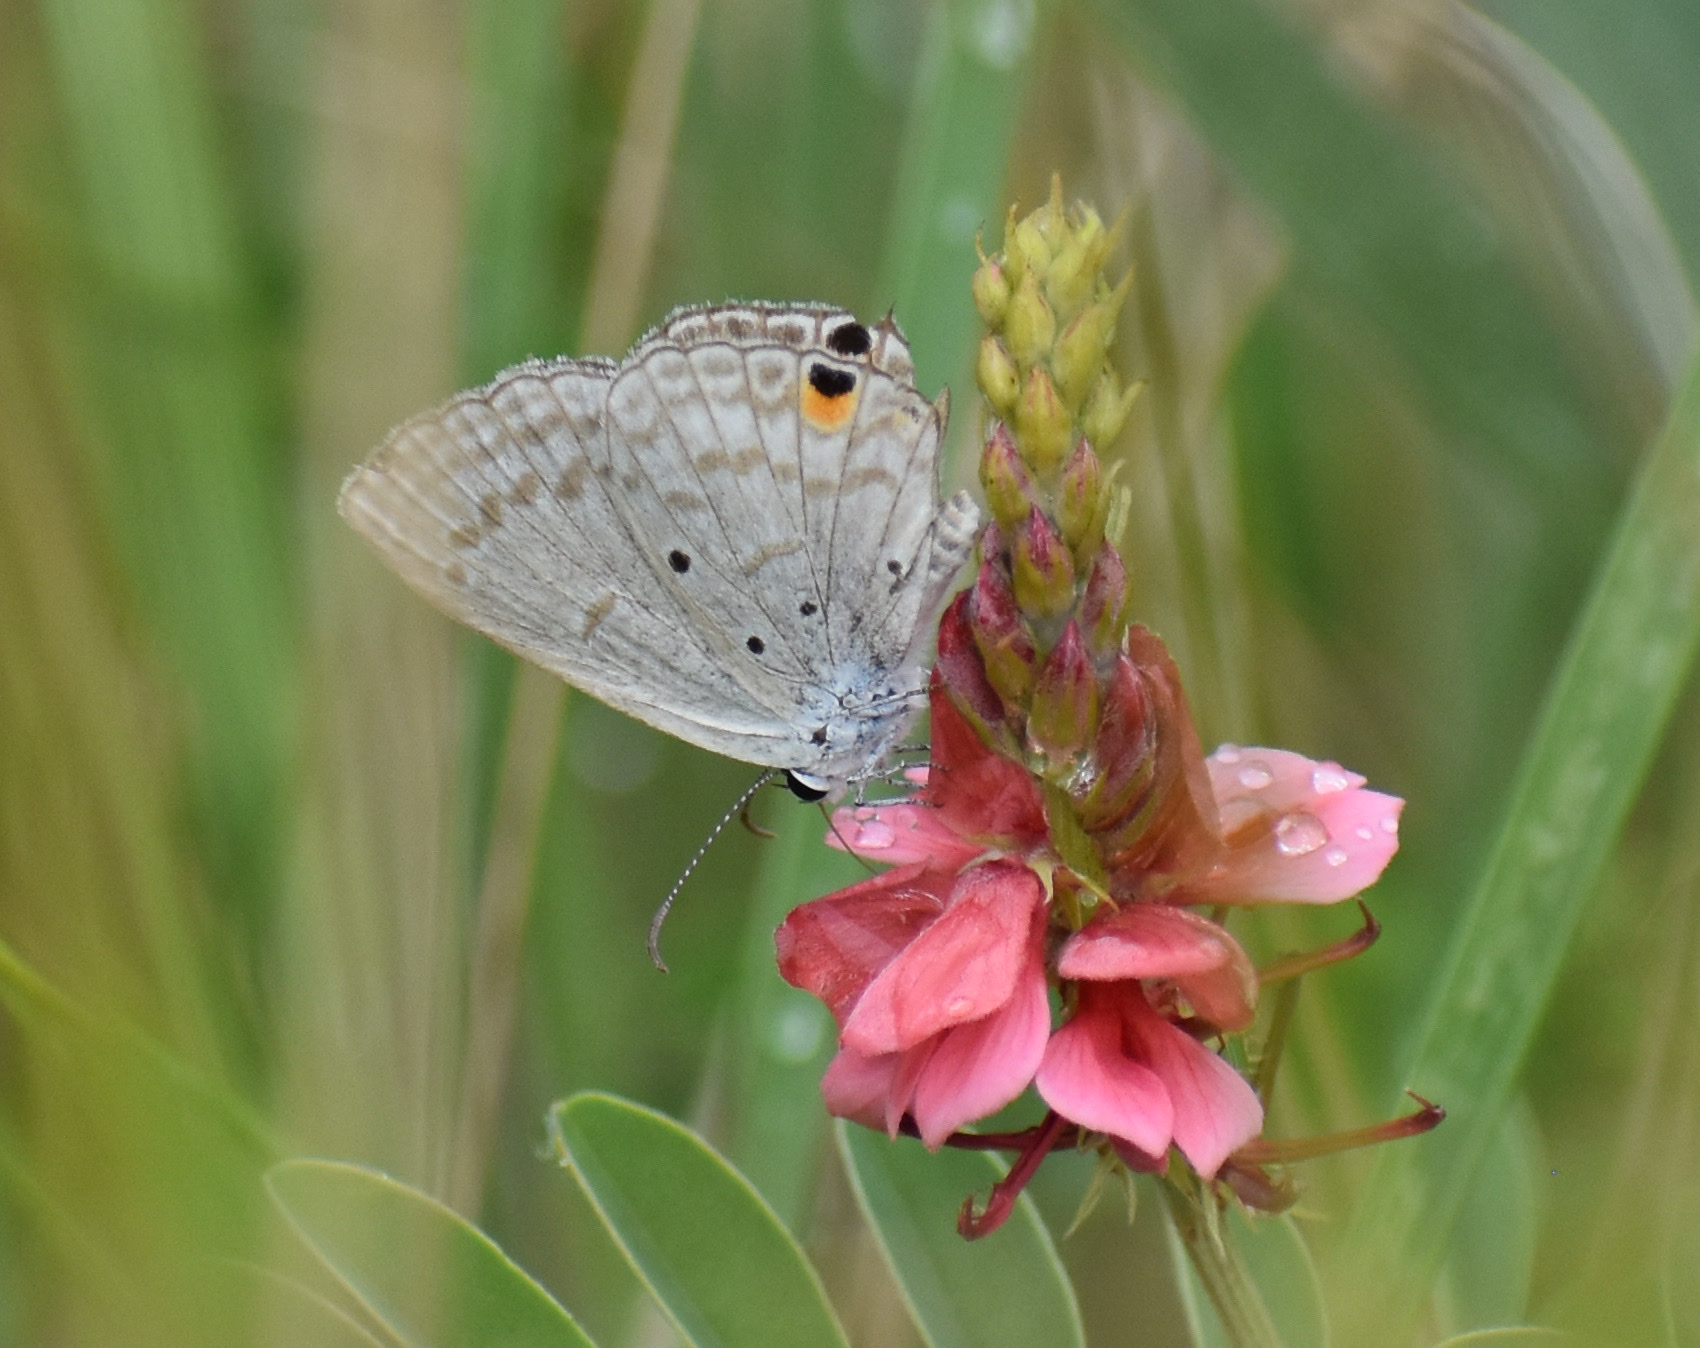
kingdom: Animalia
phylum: Arthropoda
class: Insecta
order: Lepidoptera
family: Lycaenidae
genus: Euchrysops
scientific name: Euchrysops barkeri
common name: Barker's smoky blue
